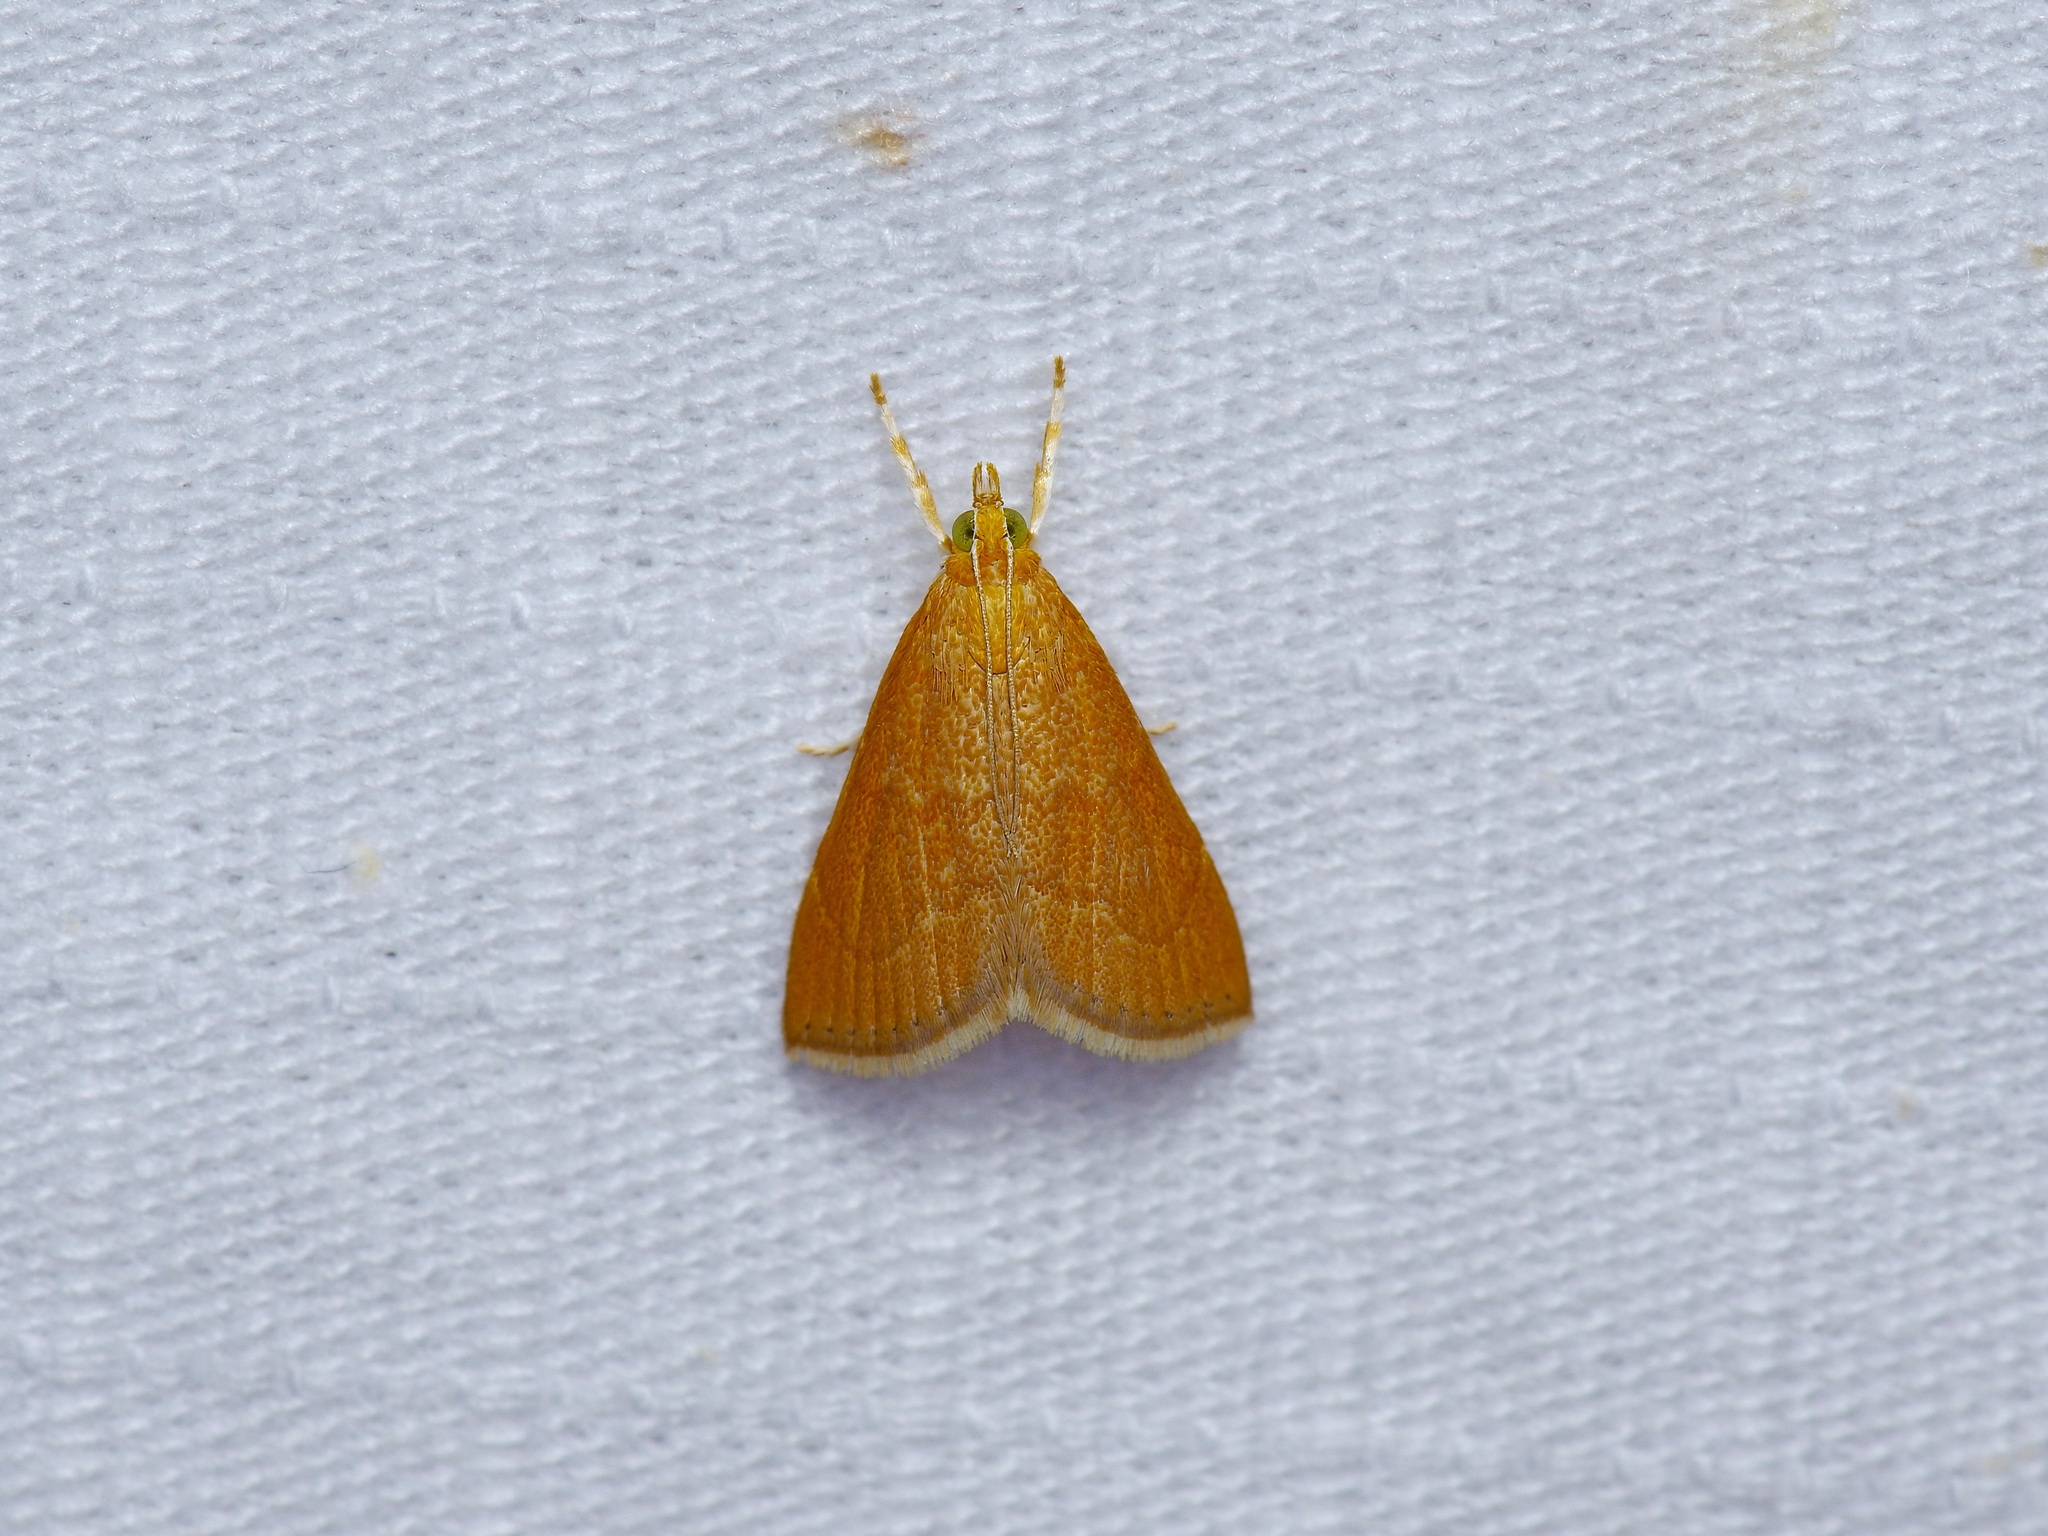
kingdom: Animalia
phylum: Arthropoda
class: Insecta
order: Lepidoptera
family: Crambidae
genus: Glaphyria
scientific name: Glaphyria invisalis
